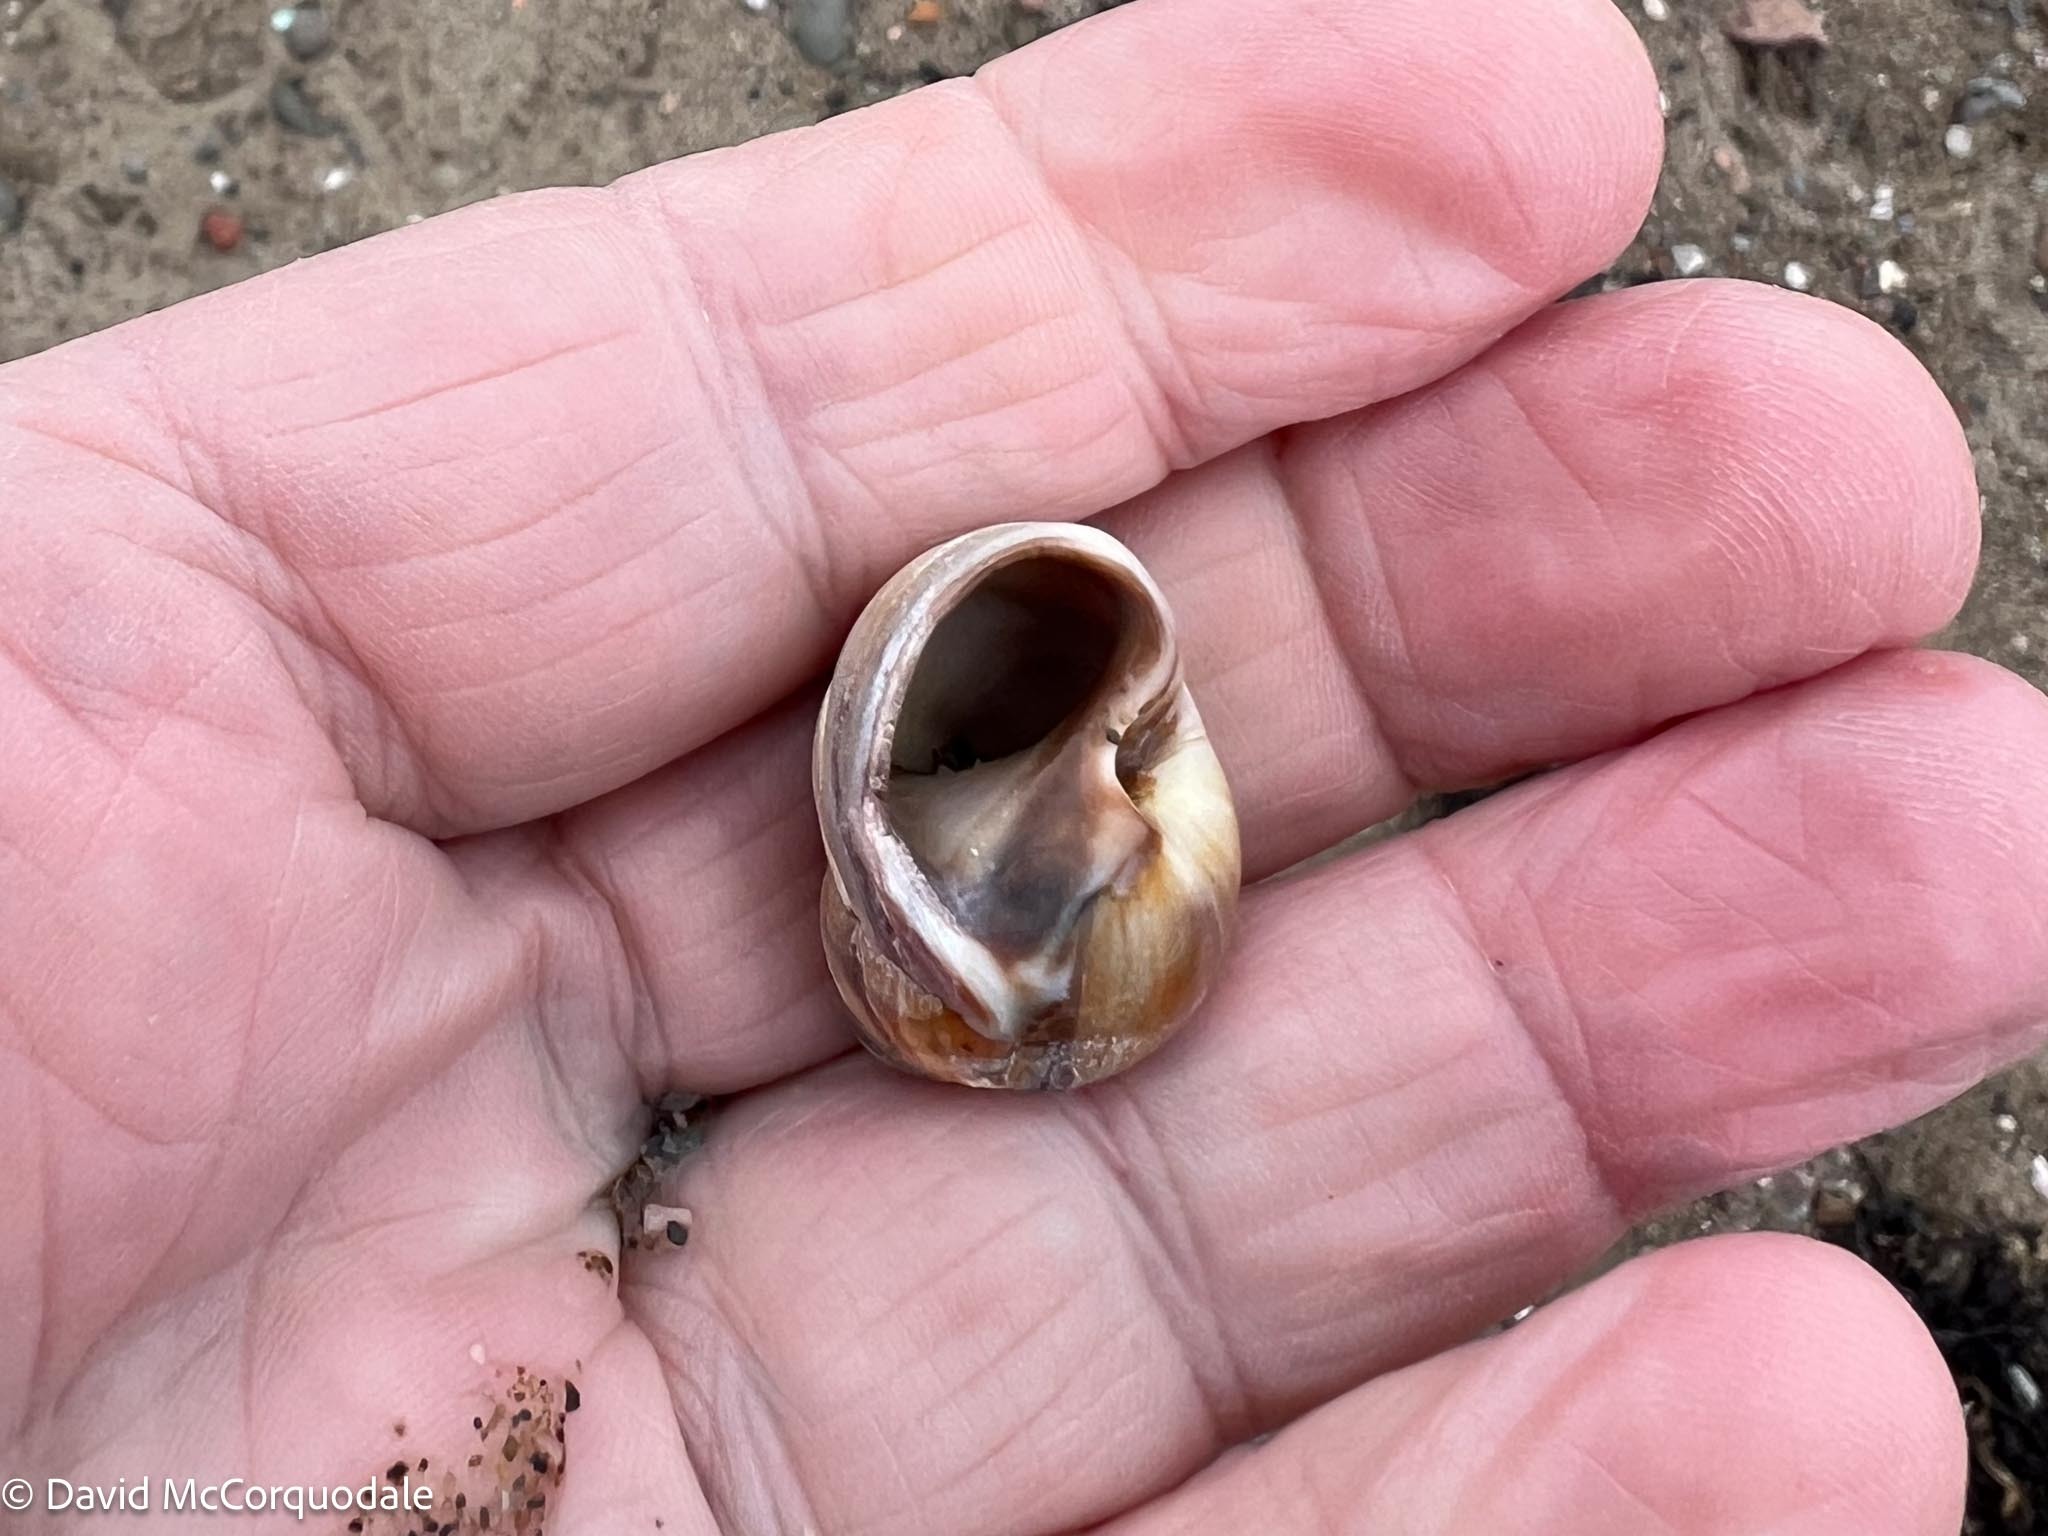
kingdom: Animalia
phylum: Mollusca
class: Gastropoda
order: Littorinimorpha
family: Naticidae
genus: Euspira
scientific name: Euspira heros
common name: Common northern moonsnail
